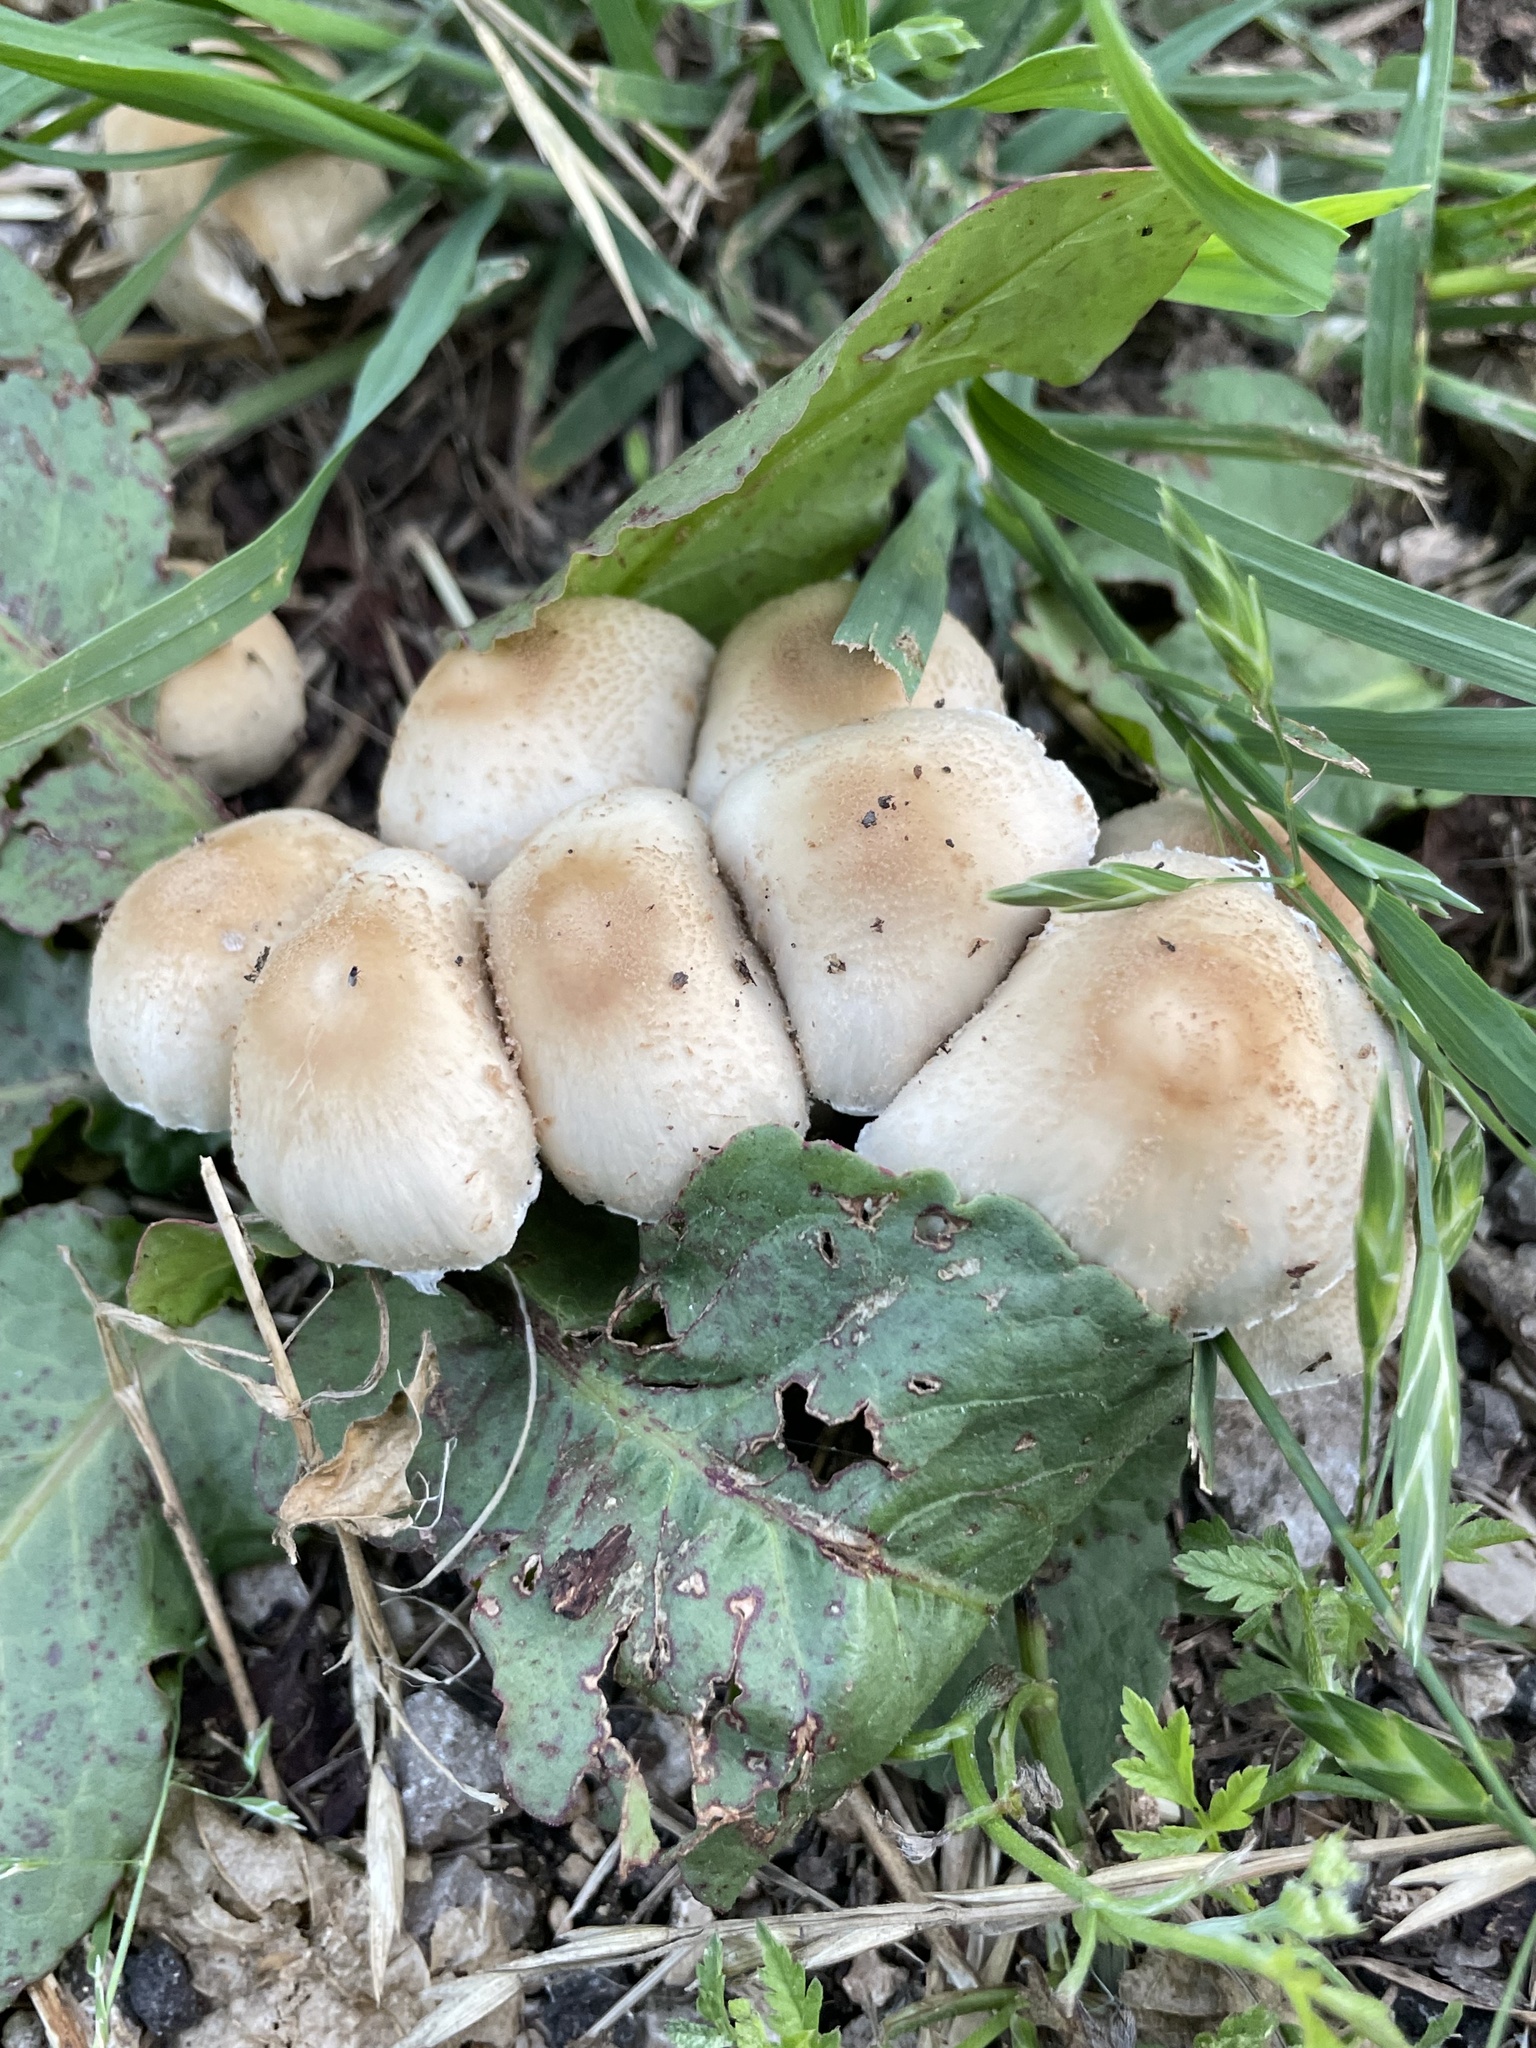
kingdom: Fungi
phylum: Basidiomycota
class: Agaricomycetes
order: Agaricales
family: Psathyrellaceae
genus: Candolleomyces
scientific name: Candolleomyces candolleanus
